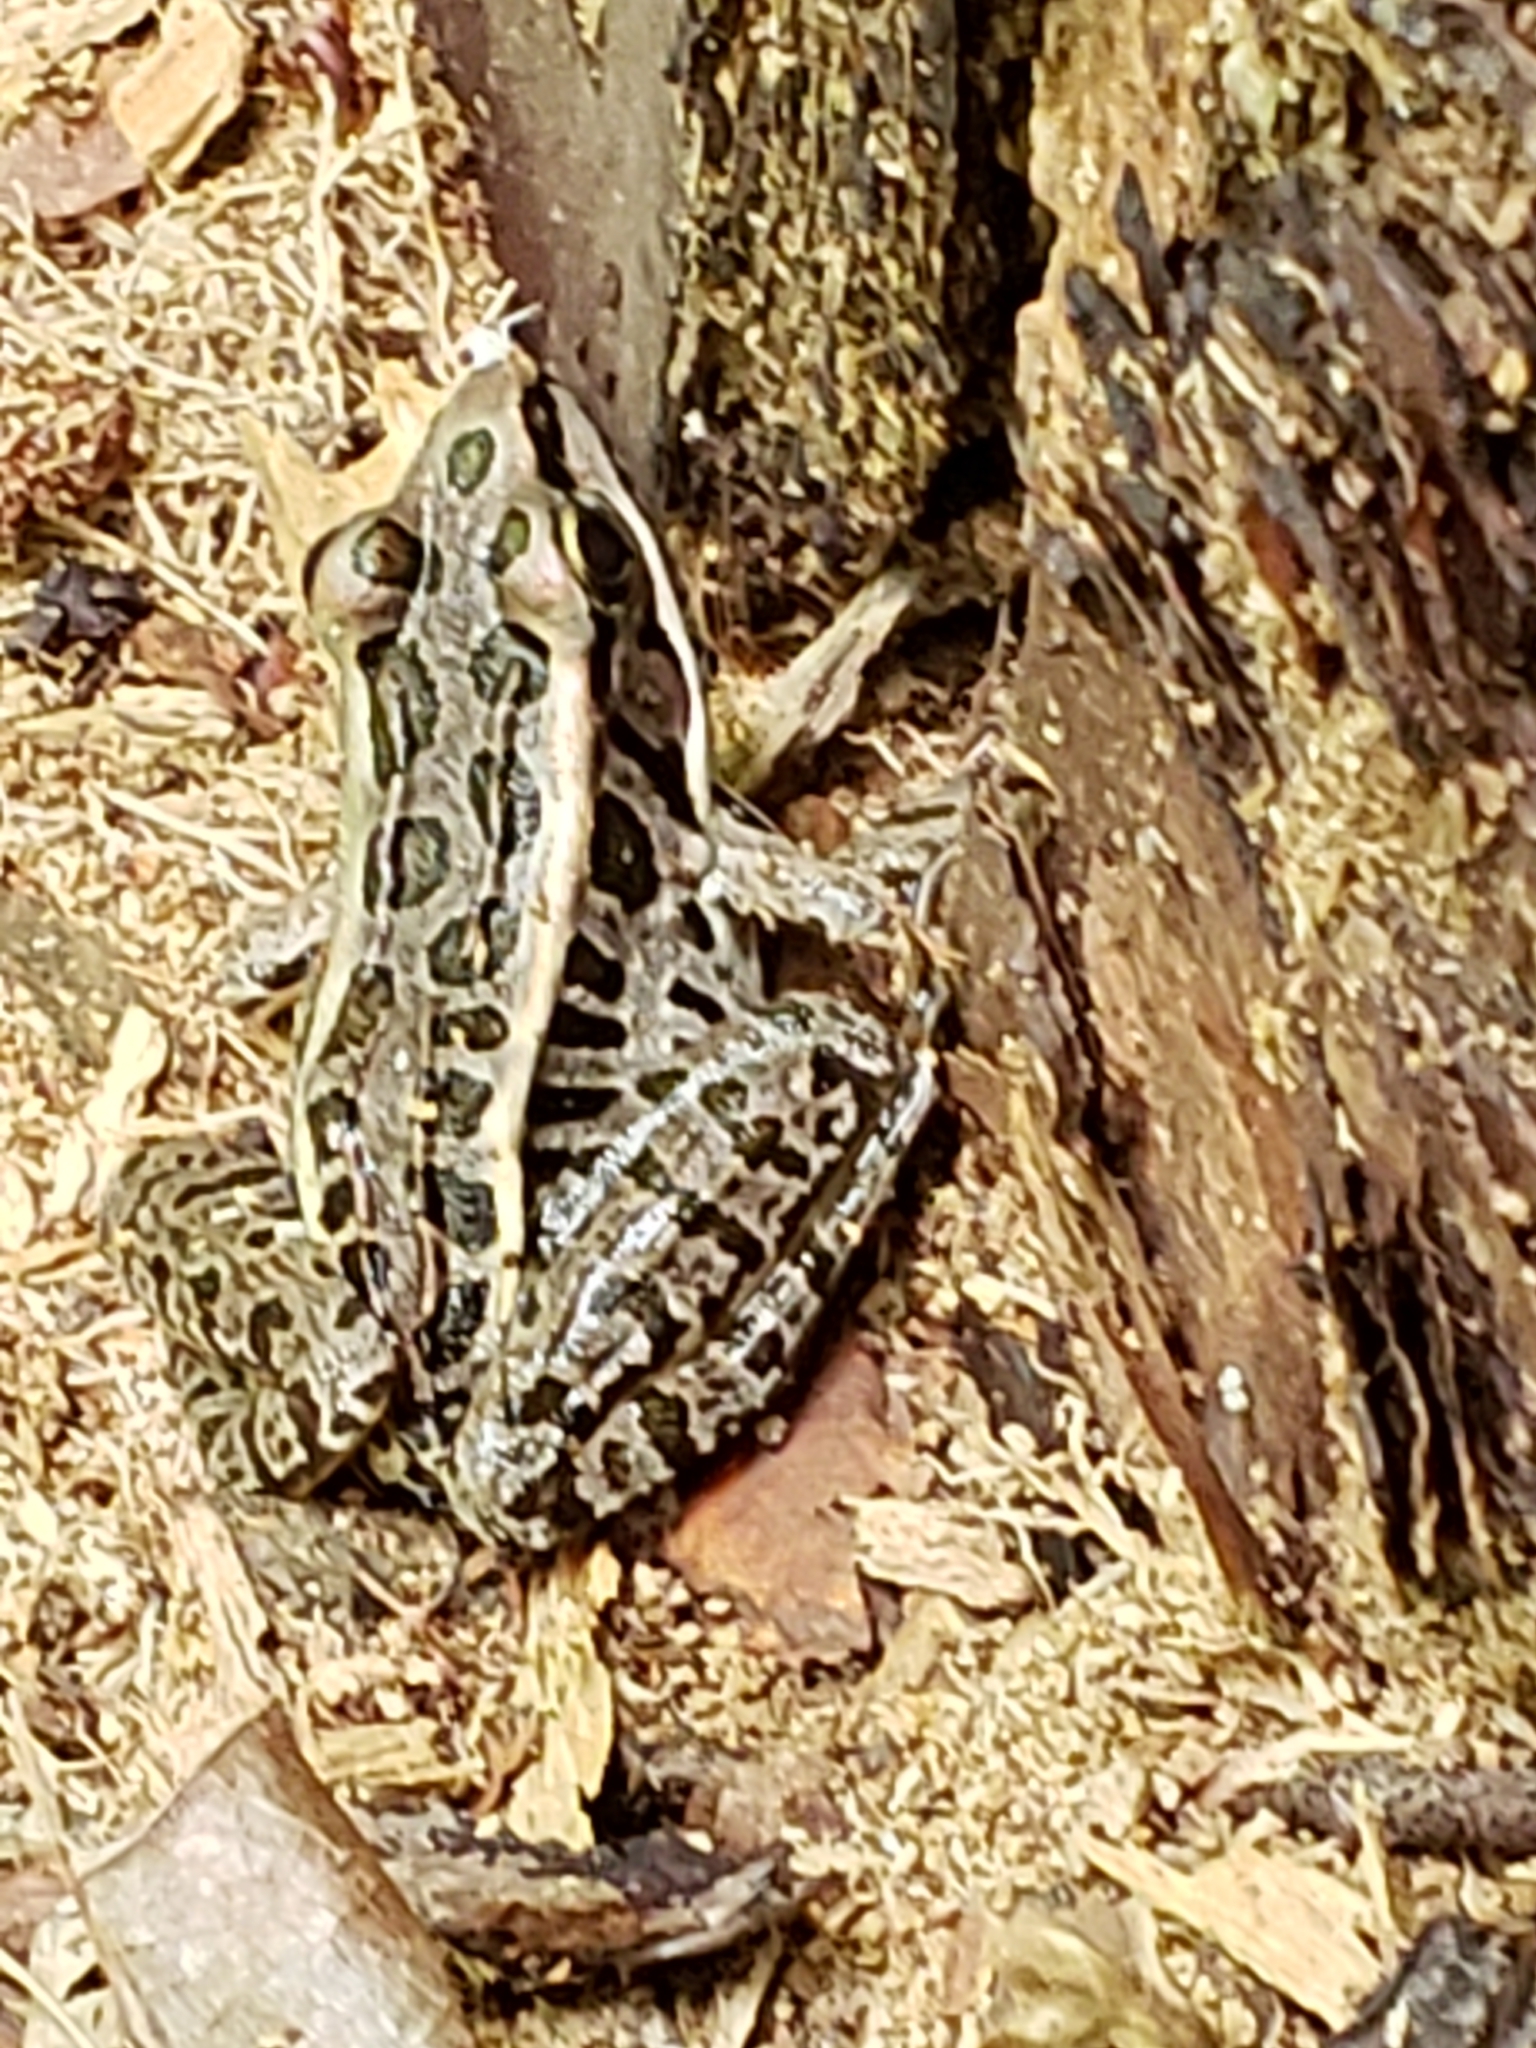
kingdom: Animalia
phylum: Chordata
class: Amphibia
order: Anura
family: Ranidae
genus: Lithobates
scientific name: Lithobates palustris
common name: Pickerel frog
